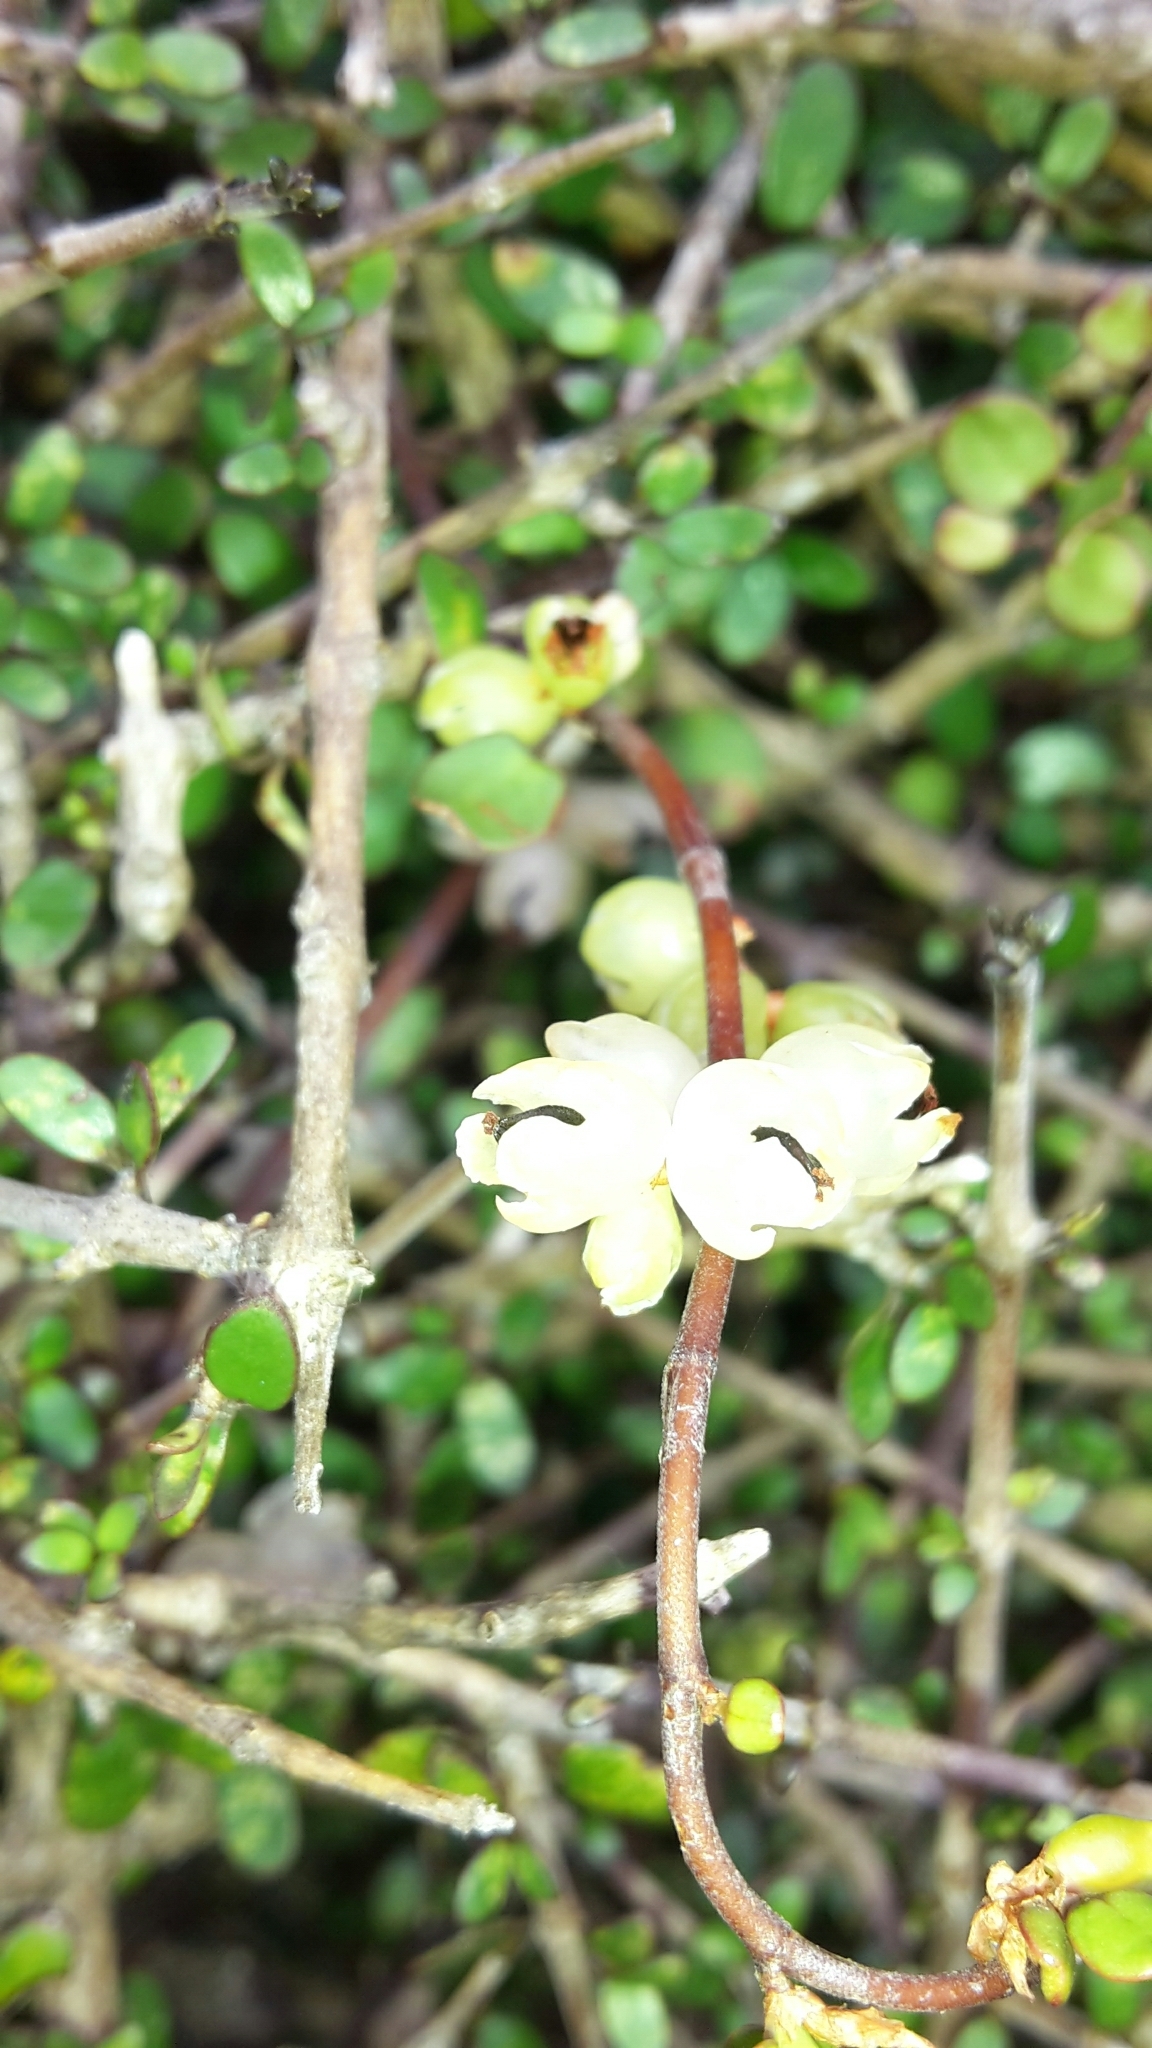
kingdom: Plantae
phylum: Tracheophyta
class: Magnoliopsida
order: Caryophyllales
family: Polygonaceae
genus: Muehlenbeckia
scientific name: Muehlenbeckia complexa
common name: Wireplant
